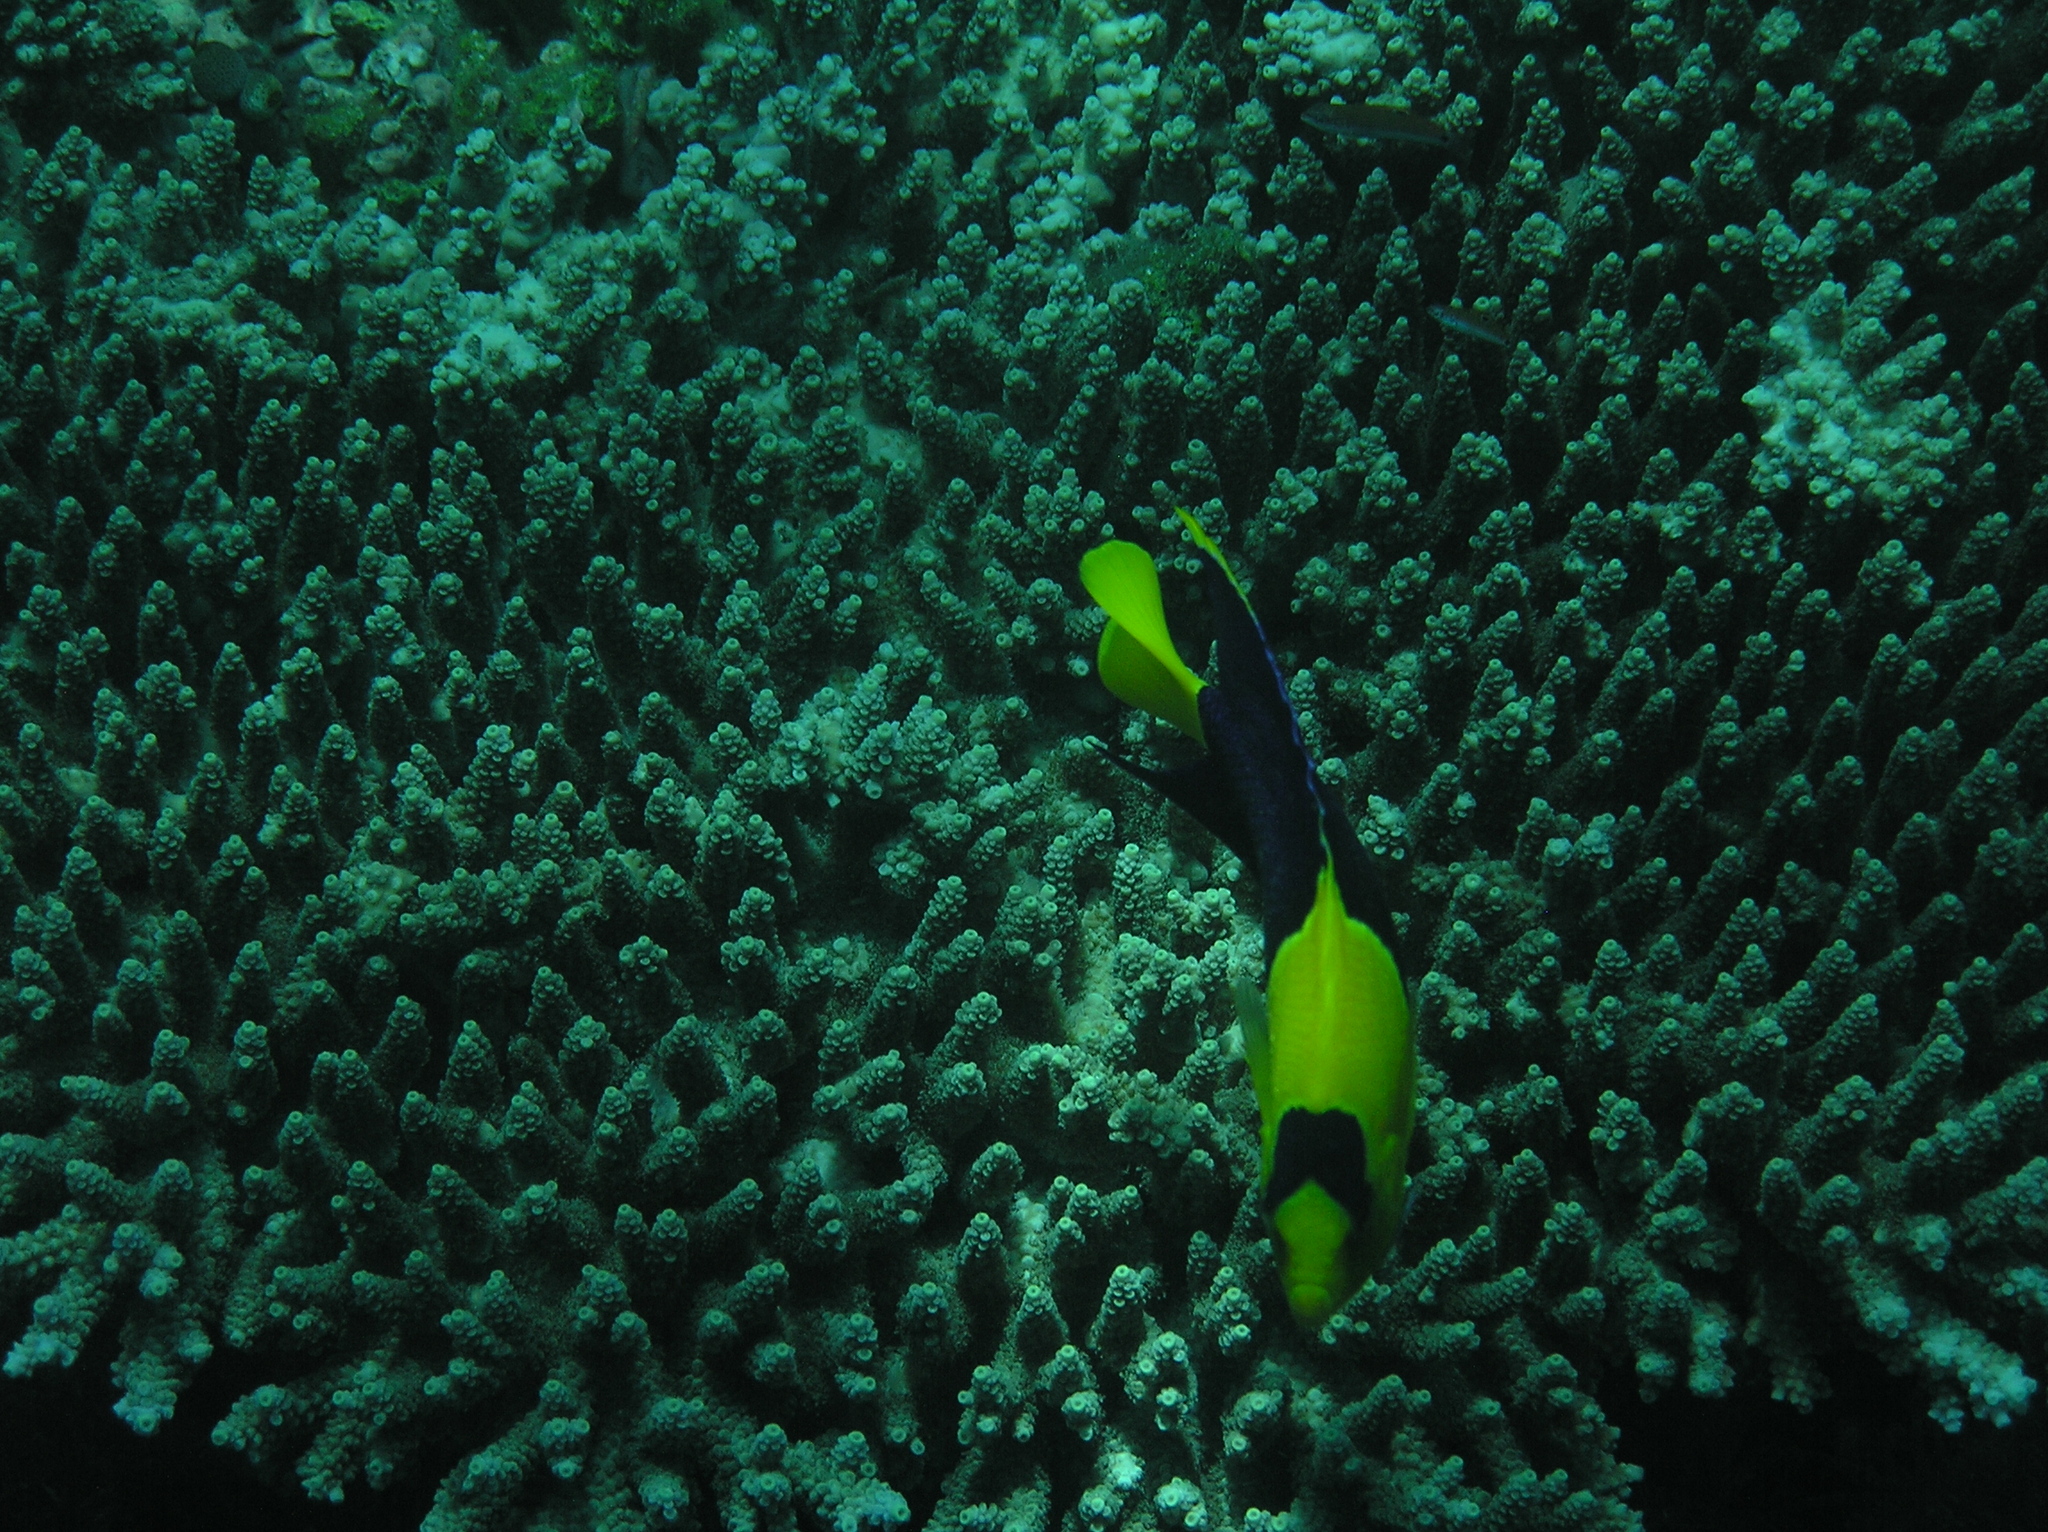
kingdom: Animalia
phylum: Chordata
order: Perciformes
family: Pomacanthidae
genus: Centropyge
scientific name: Centropyge bicolor
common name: Bicolor angelfish
